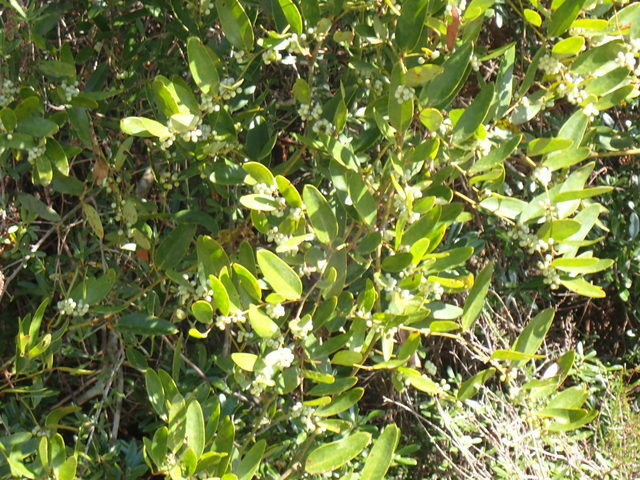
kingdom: Plantae
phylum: Tracheophyta
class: Liliopsida
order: Liliales
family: Smilacaceae
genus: Smilax
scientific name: Smilax laurifolia
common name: Bamboovine
